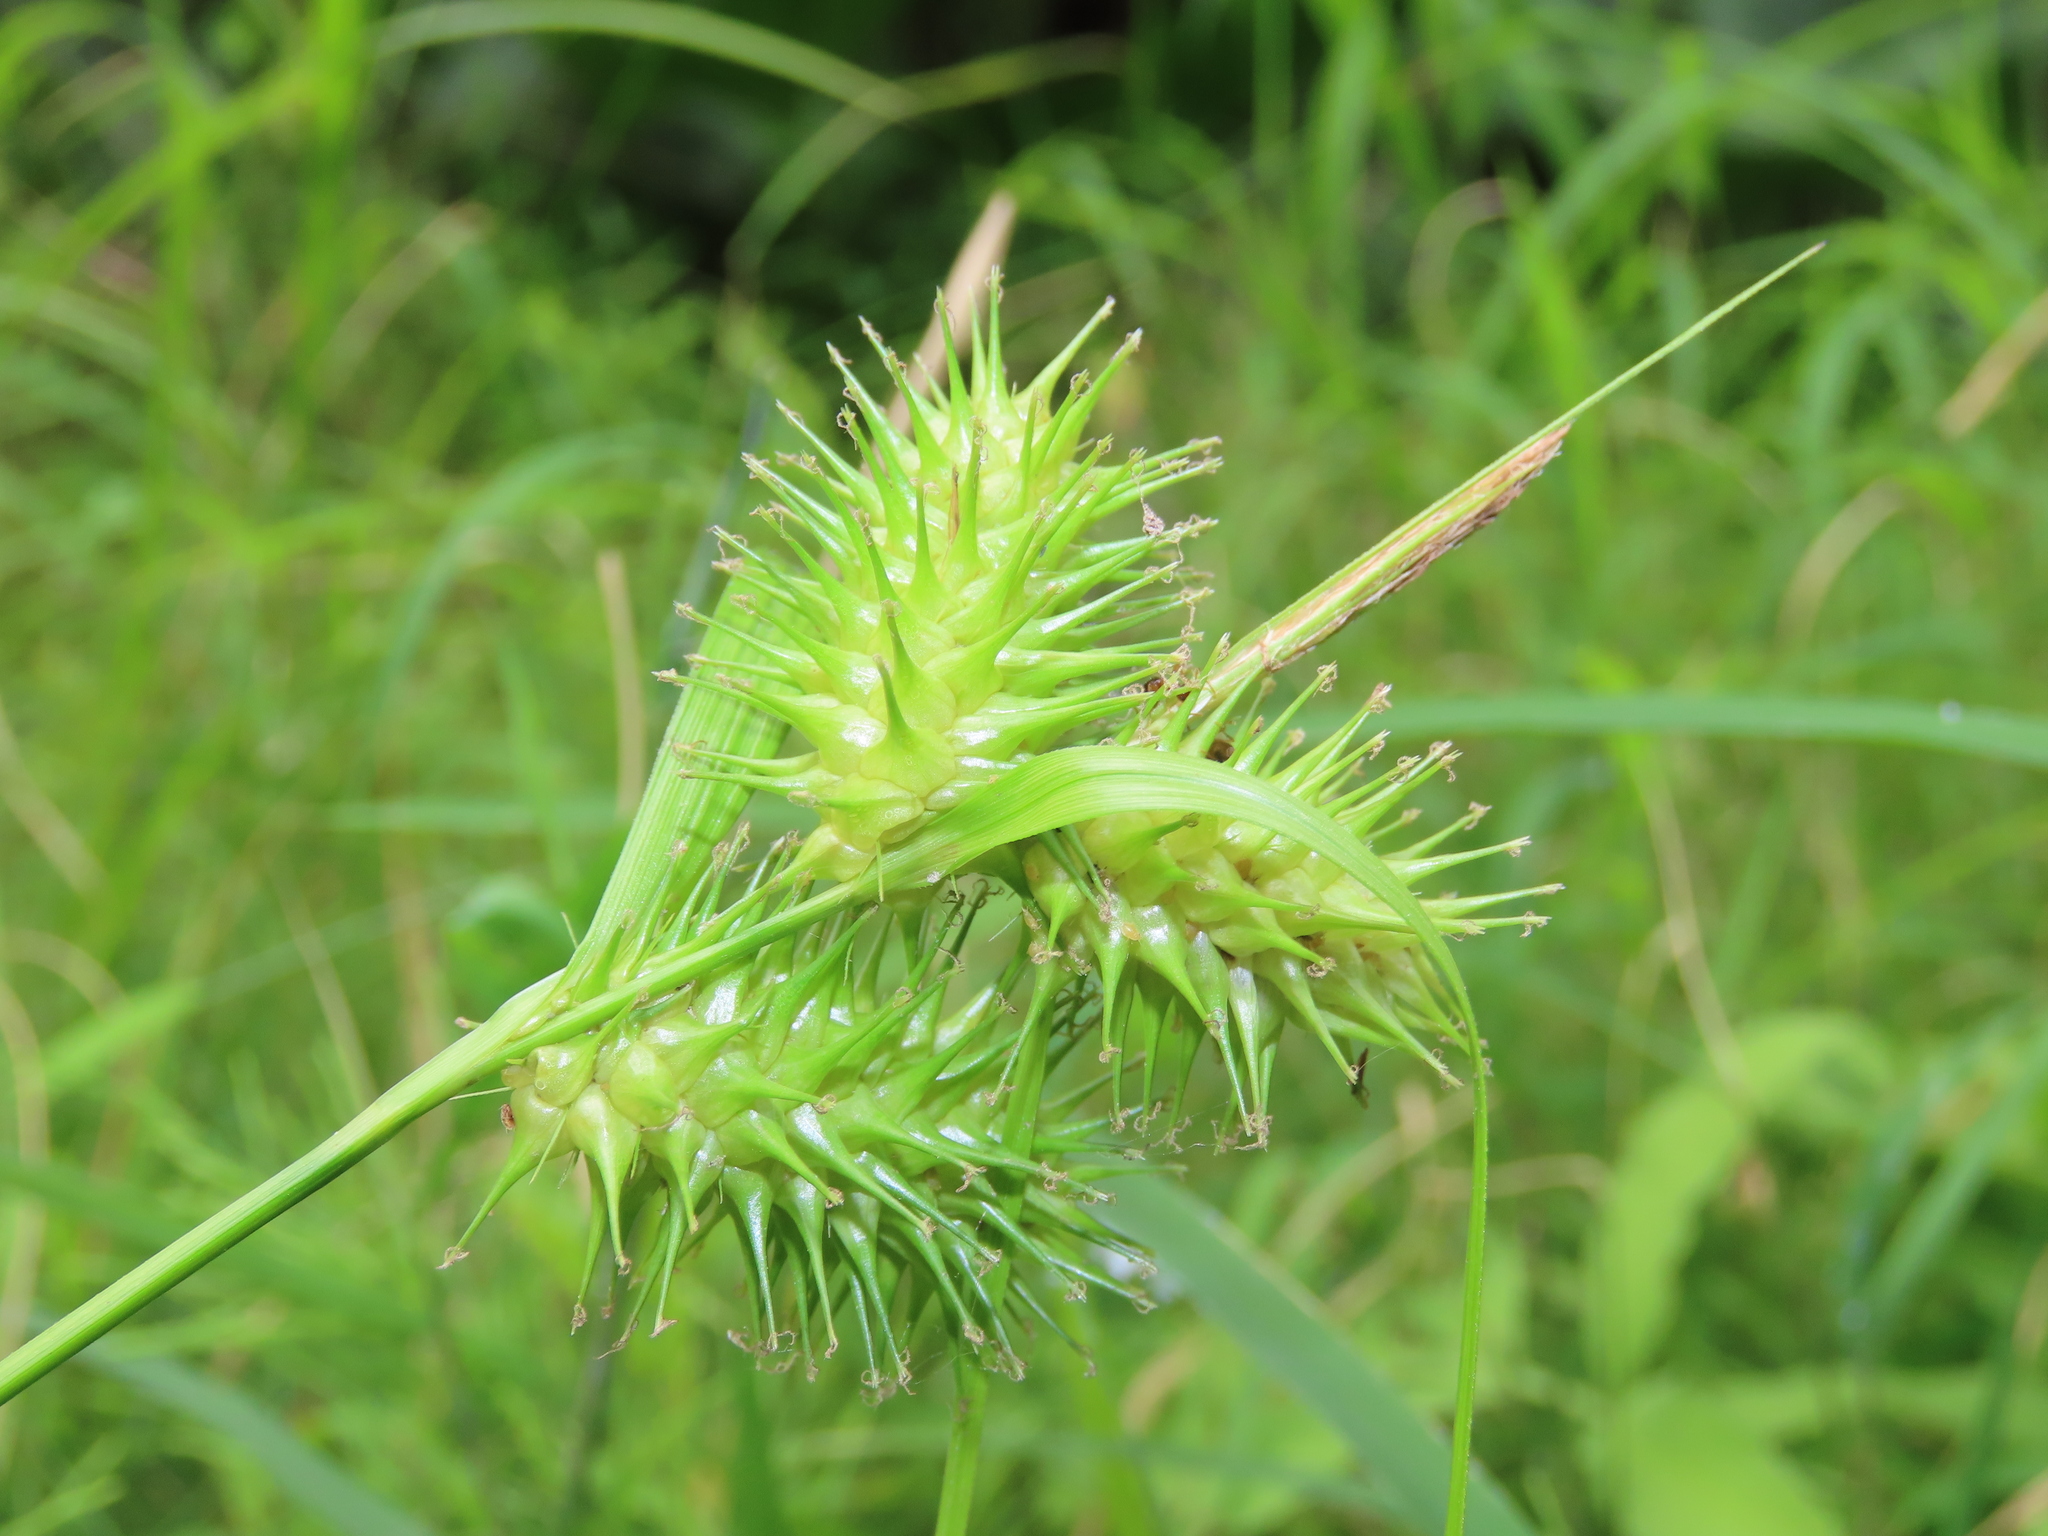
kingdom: Plantae
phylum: Tracheophyta
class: Liliopsida
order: Poales
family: Cyperaceae
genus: Carex
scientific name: Carex lurida
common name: Sallow sedge
